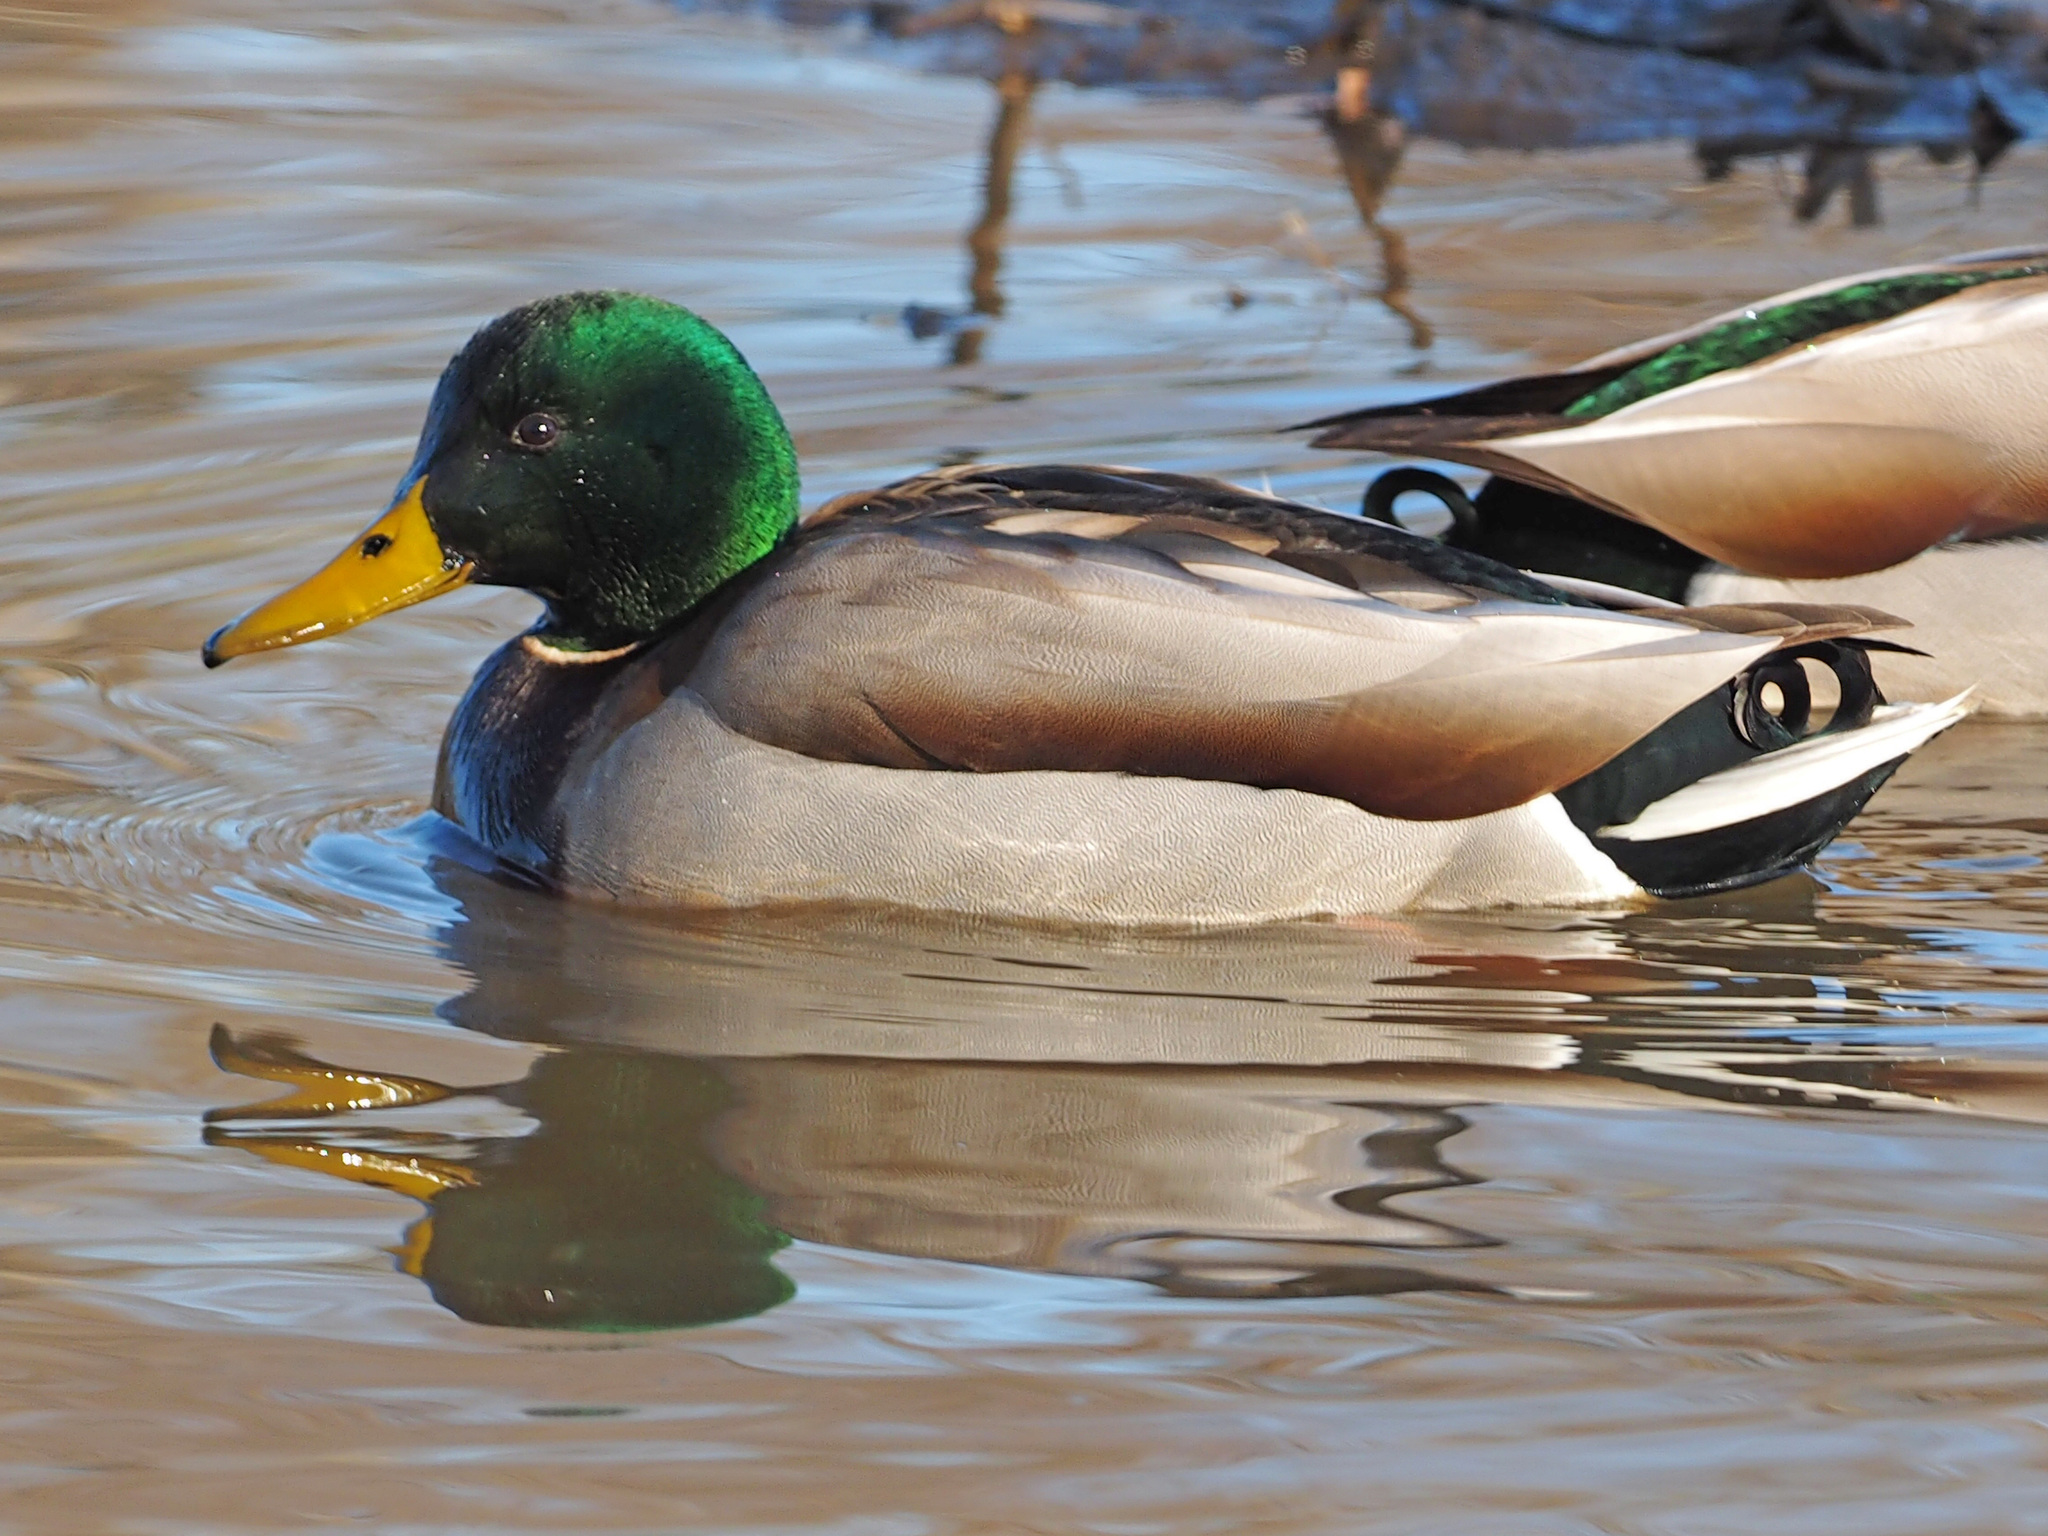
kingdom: Animalia
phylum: Chordata
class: Aves
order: Anseriformes
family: Anatidae
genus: Anas
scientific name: Anas platyrhynchos
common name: Mallard
